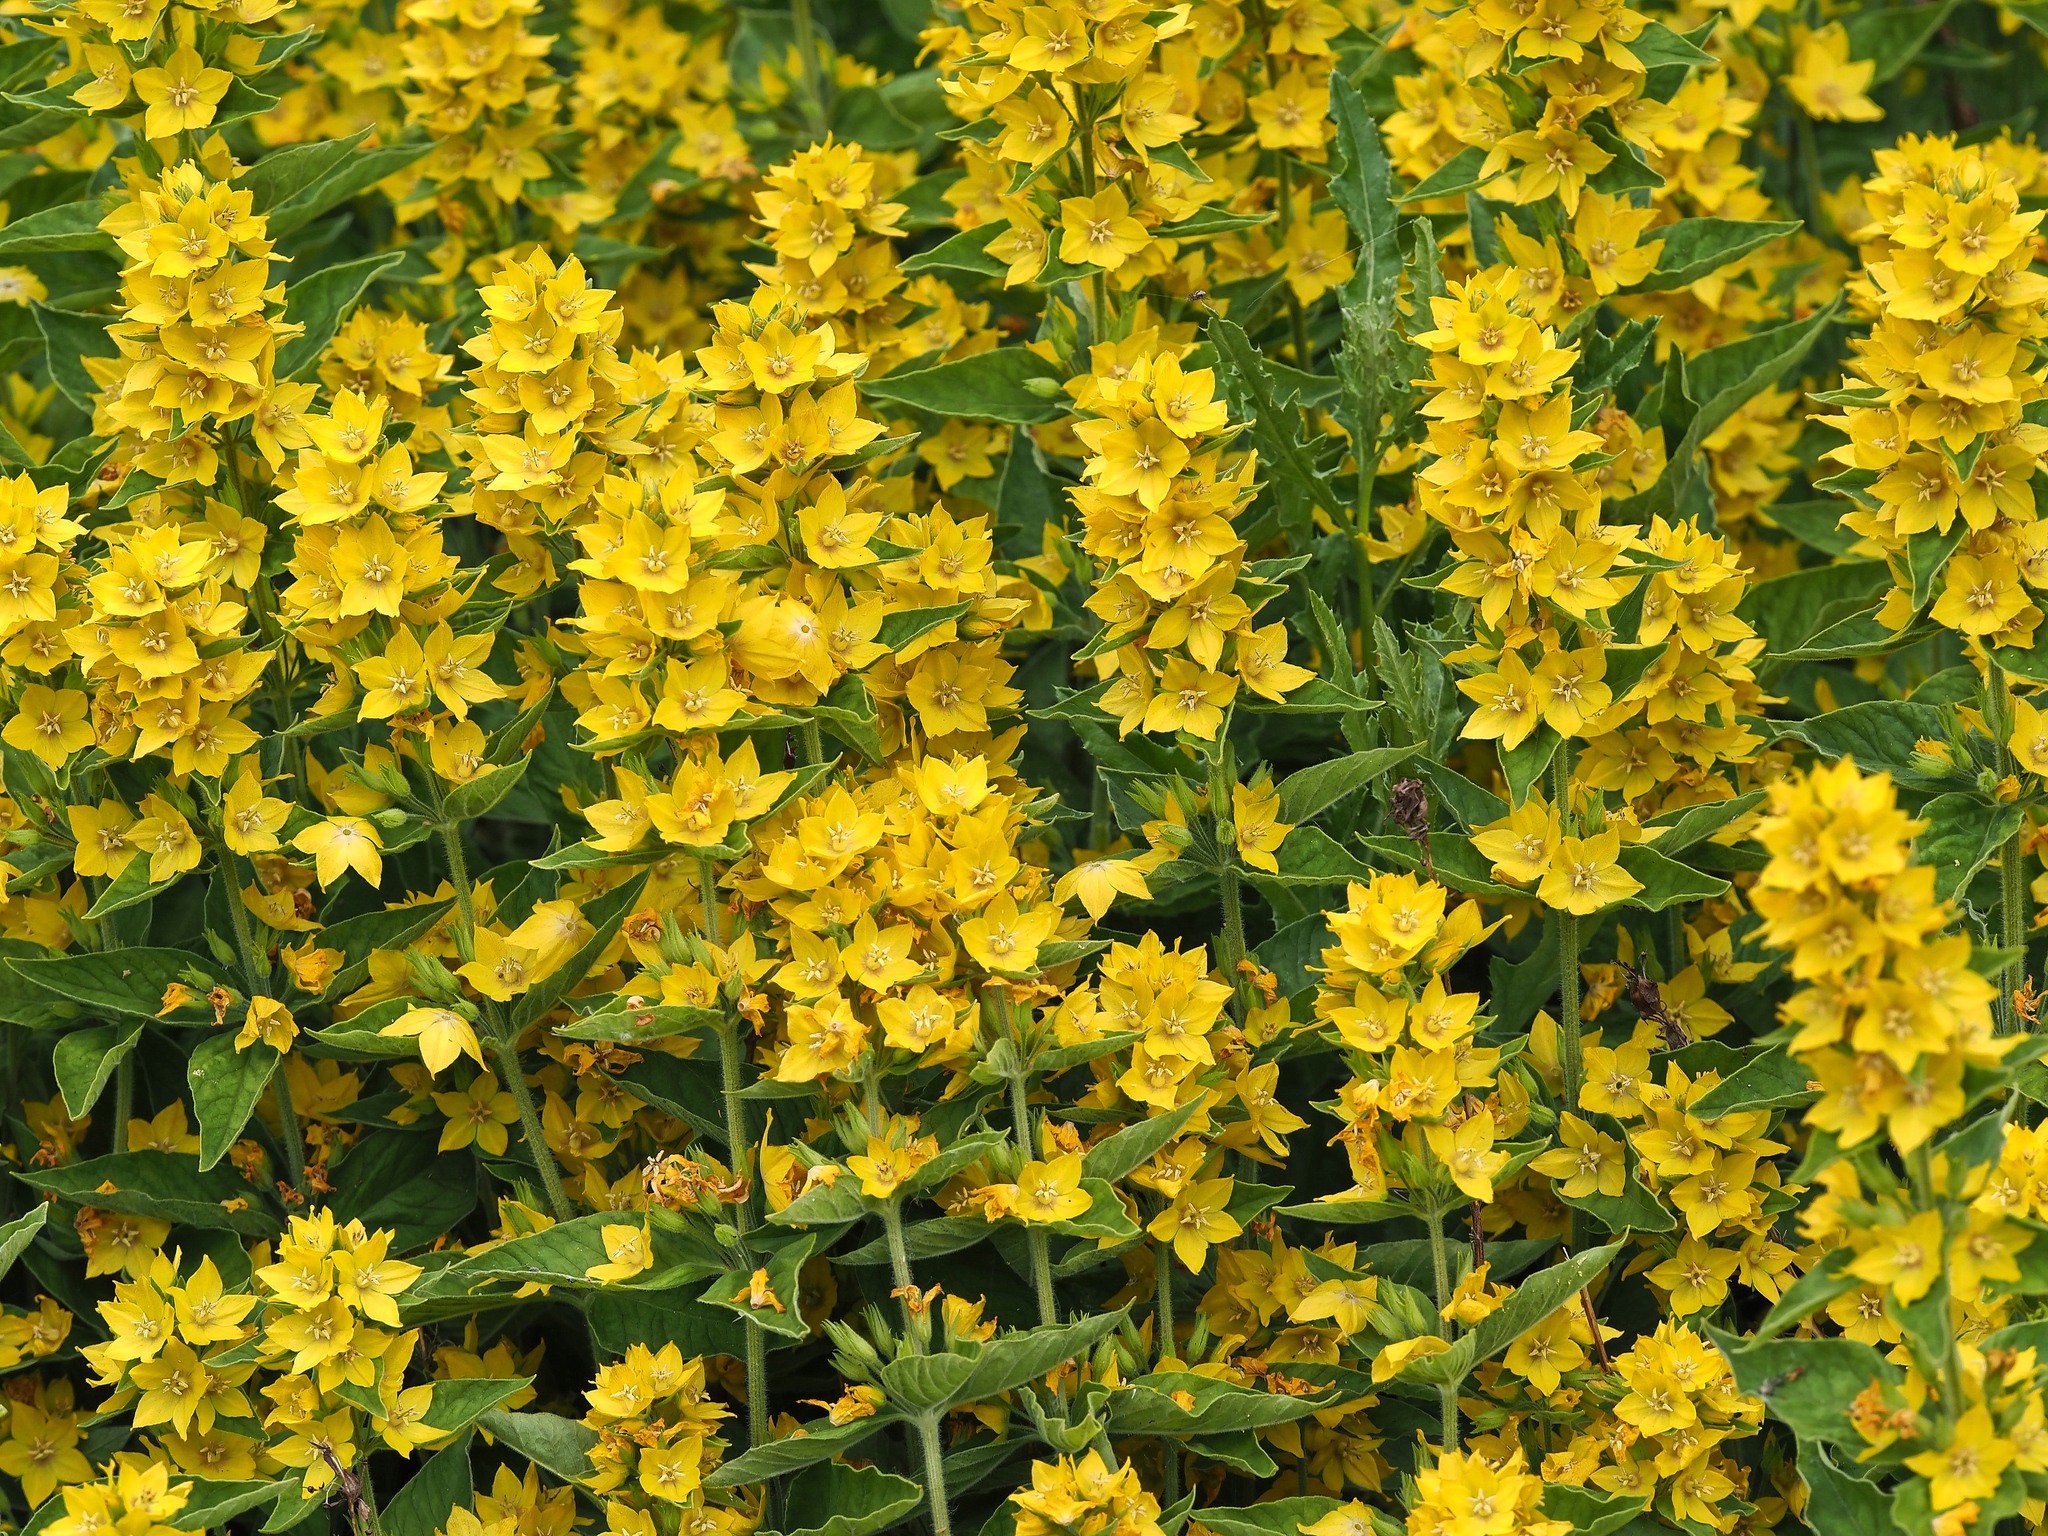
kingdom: Plantae
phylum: Tracheophyta
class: Magnoliopsida
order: Ericales
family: Primulaceae
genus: Lysimachia
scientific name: Lysimachia punctata
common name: Dotted loosestrife
